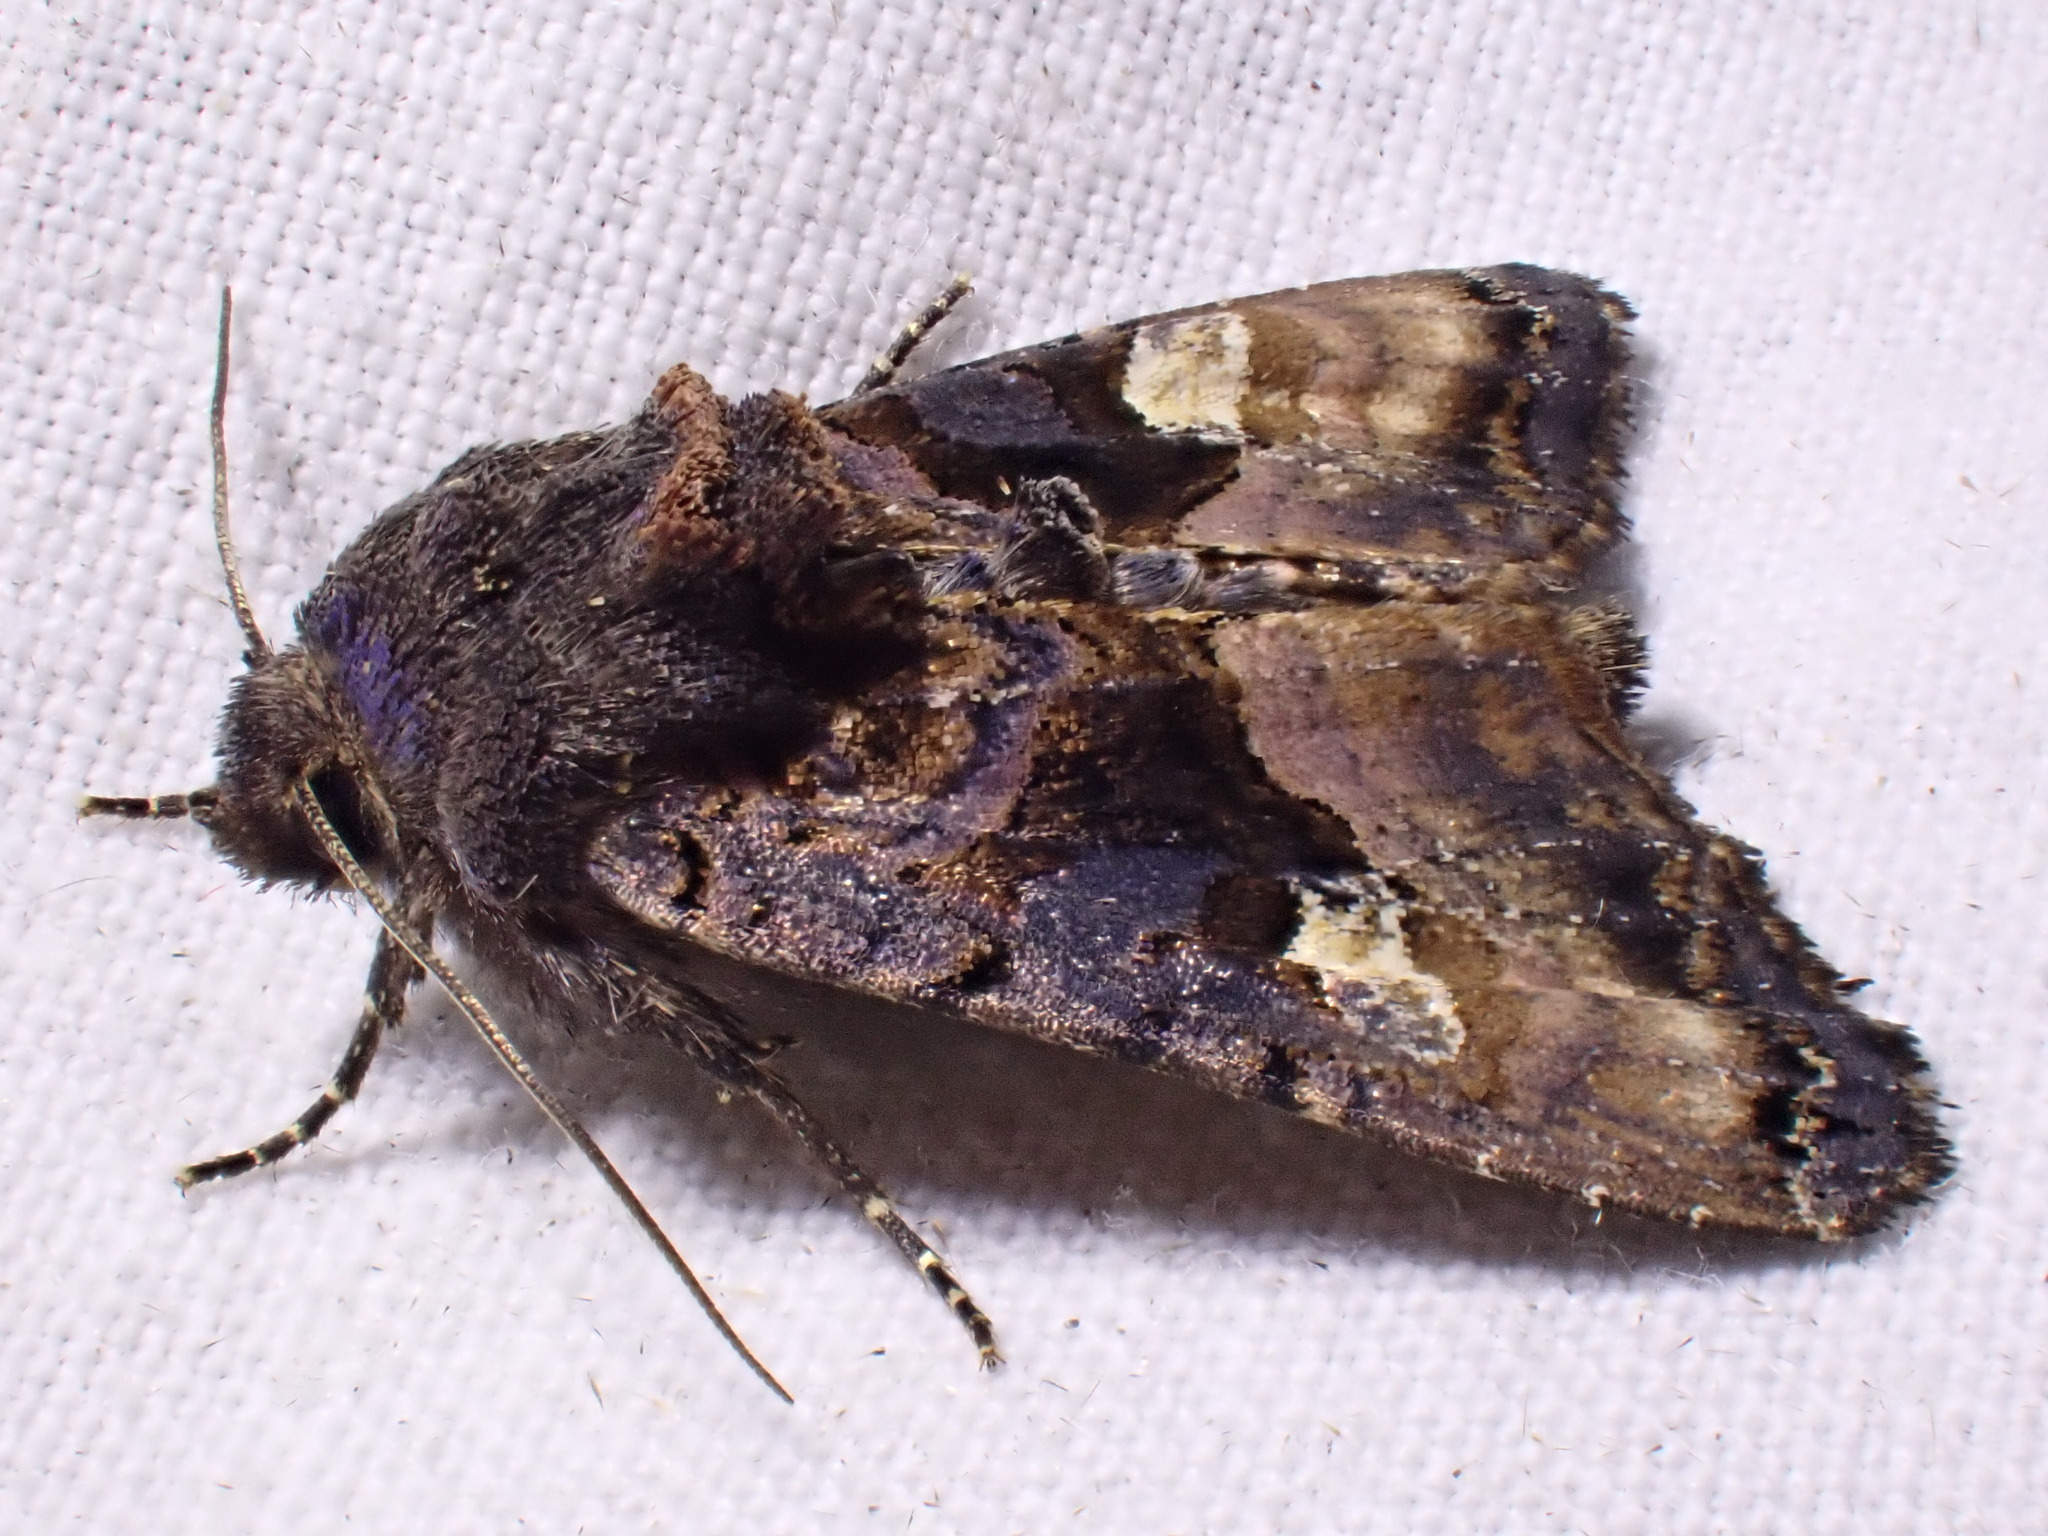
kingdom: Animalia
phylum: Arthropoda
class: Insecta
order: Lepidoptera
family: Noctuidae
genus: Euplexia
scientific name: Euplexia lucipara
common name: Small angle shades
